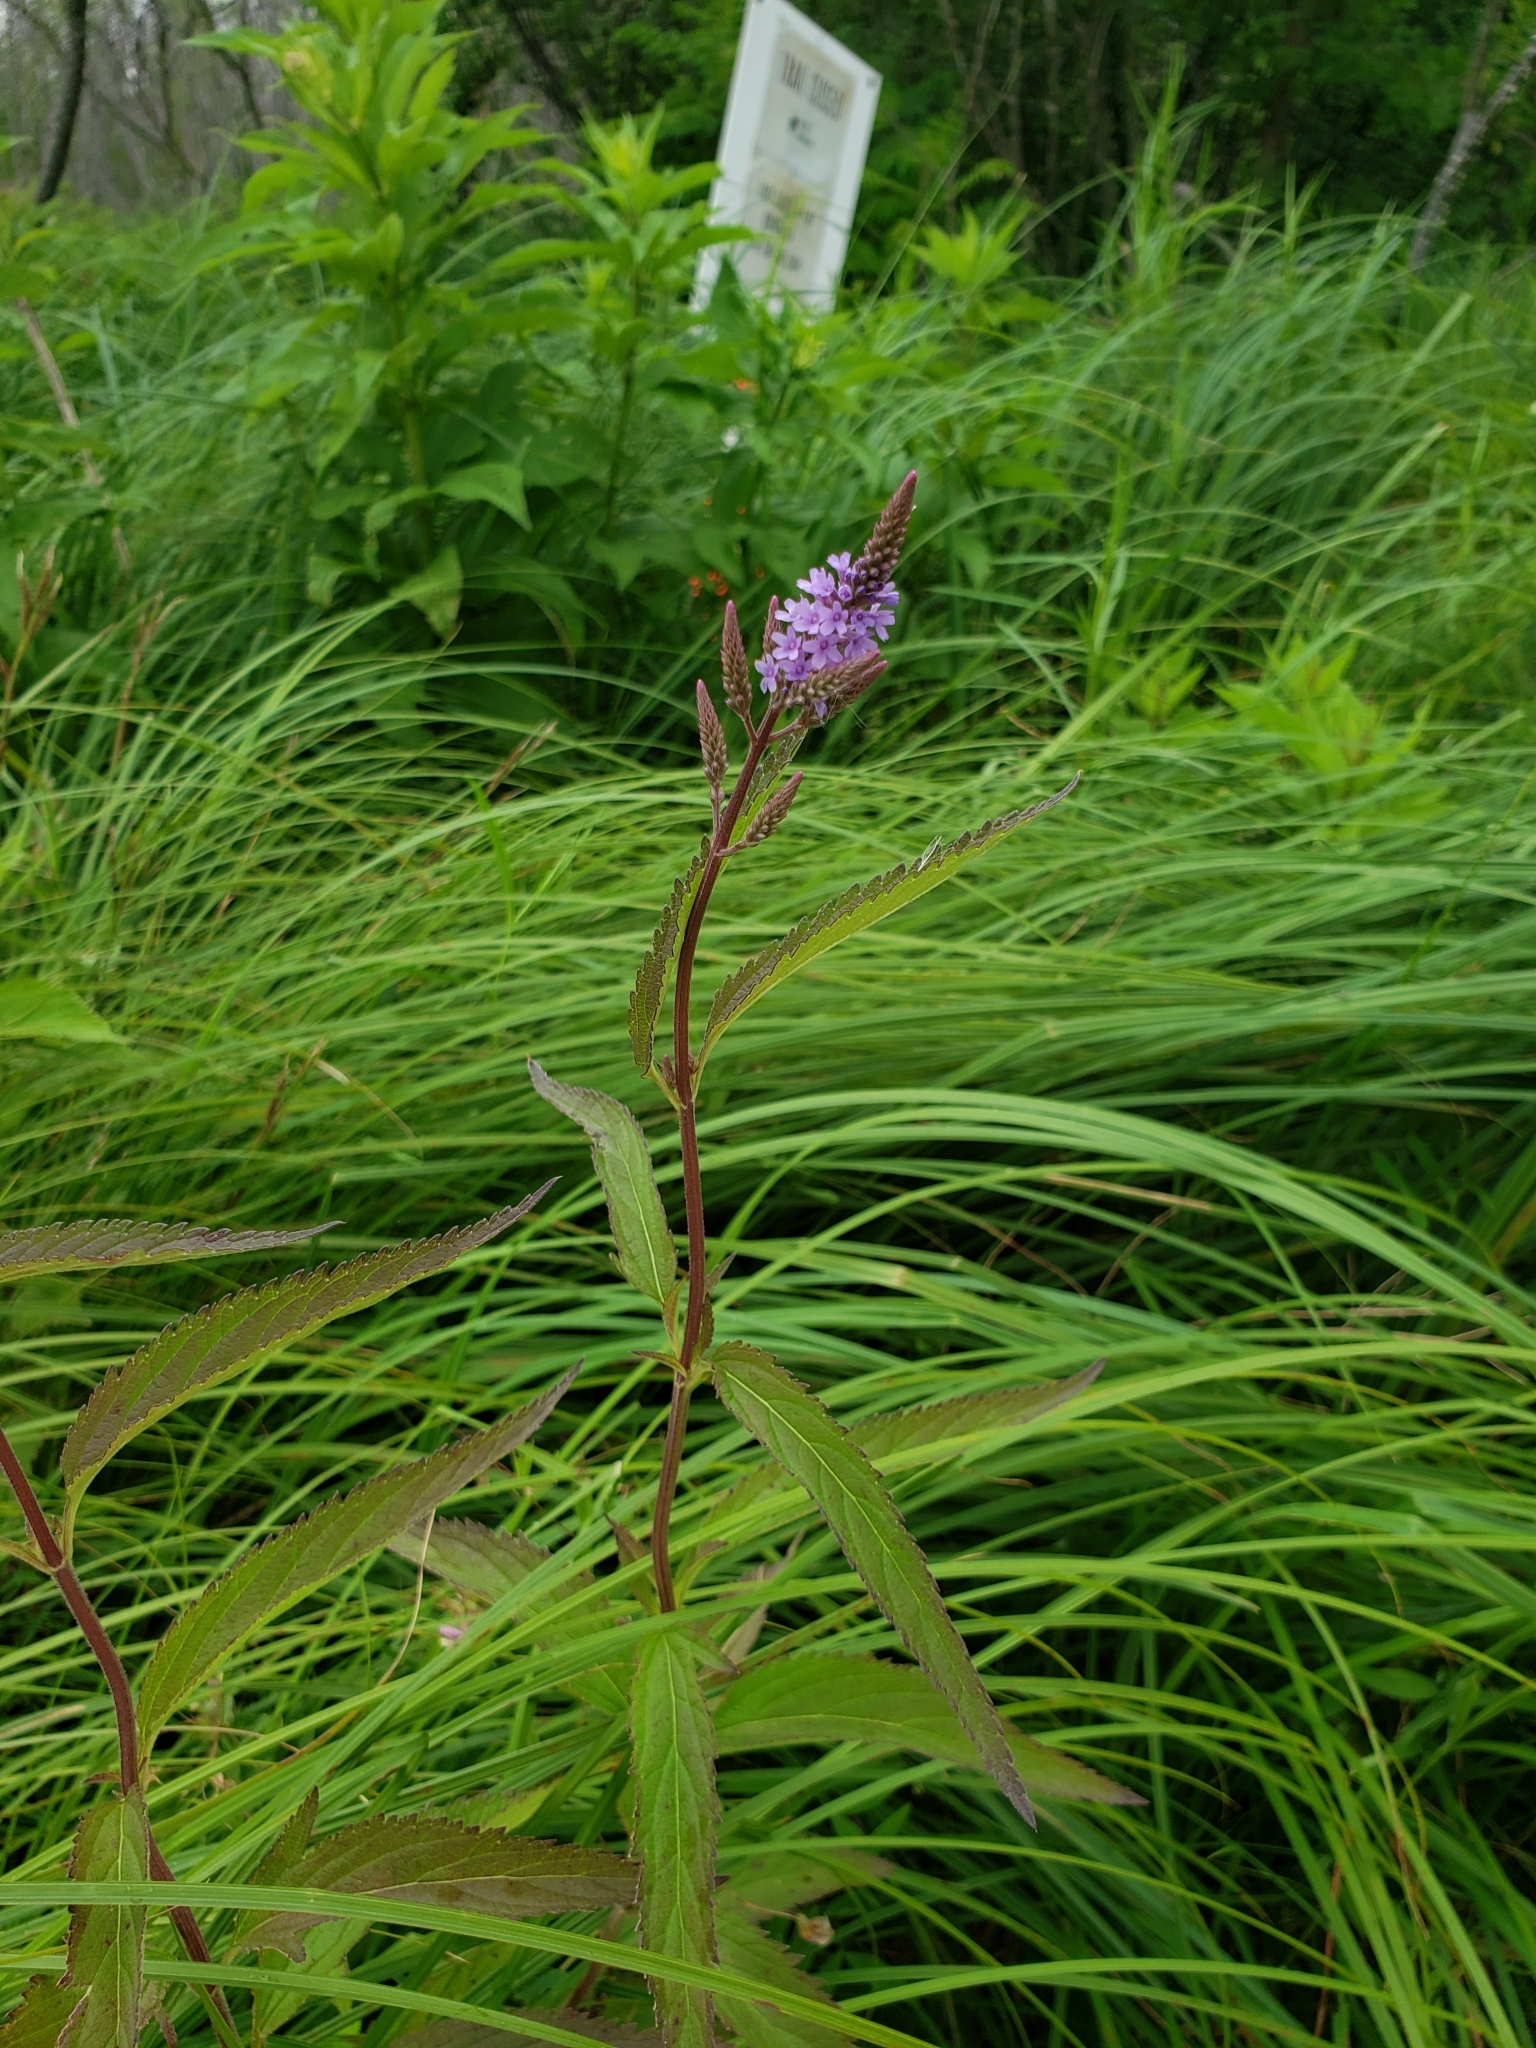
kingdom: Plantae
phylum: Tracheophyta
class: Magnoliopsida
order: Lamiales
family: Verbenaceae
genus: Verbena
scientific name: Verbena hastata
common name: American blue vervain
